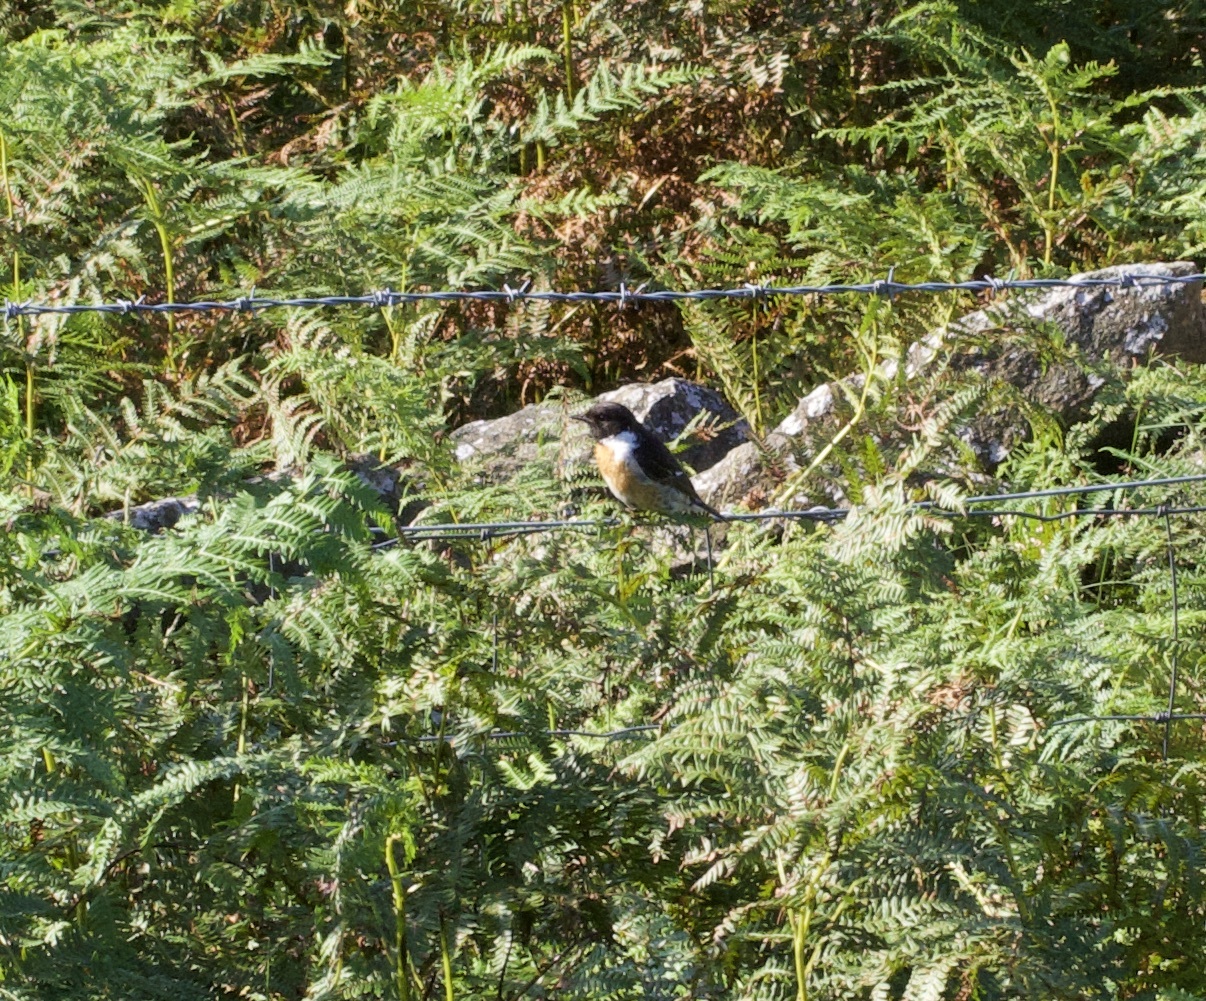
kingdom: Animalia
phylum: Chordata
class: Aves
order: Passeriformes
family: Muscicapidae
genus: Saxicola
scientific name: Saxicola rubicola
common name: European stonechat
